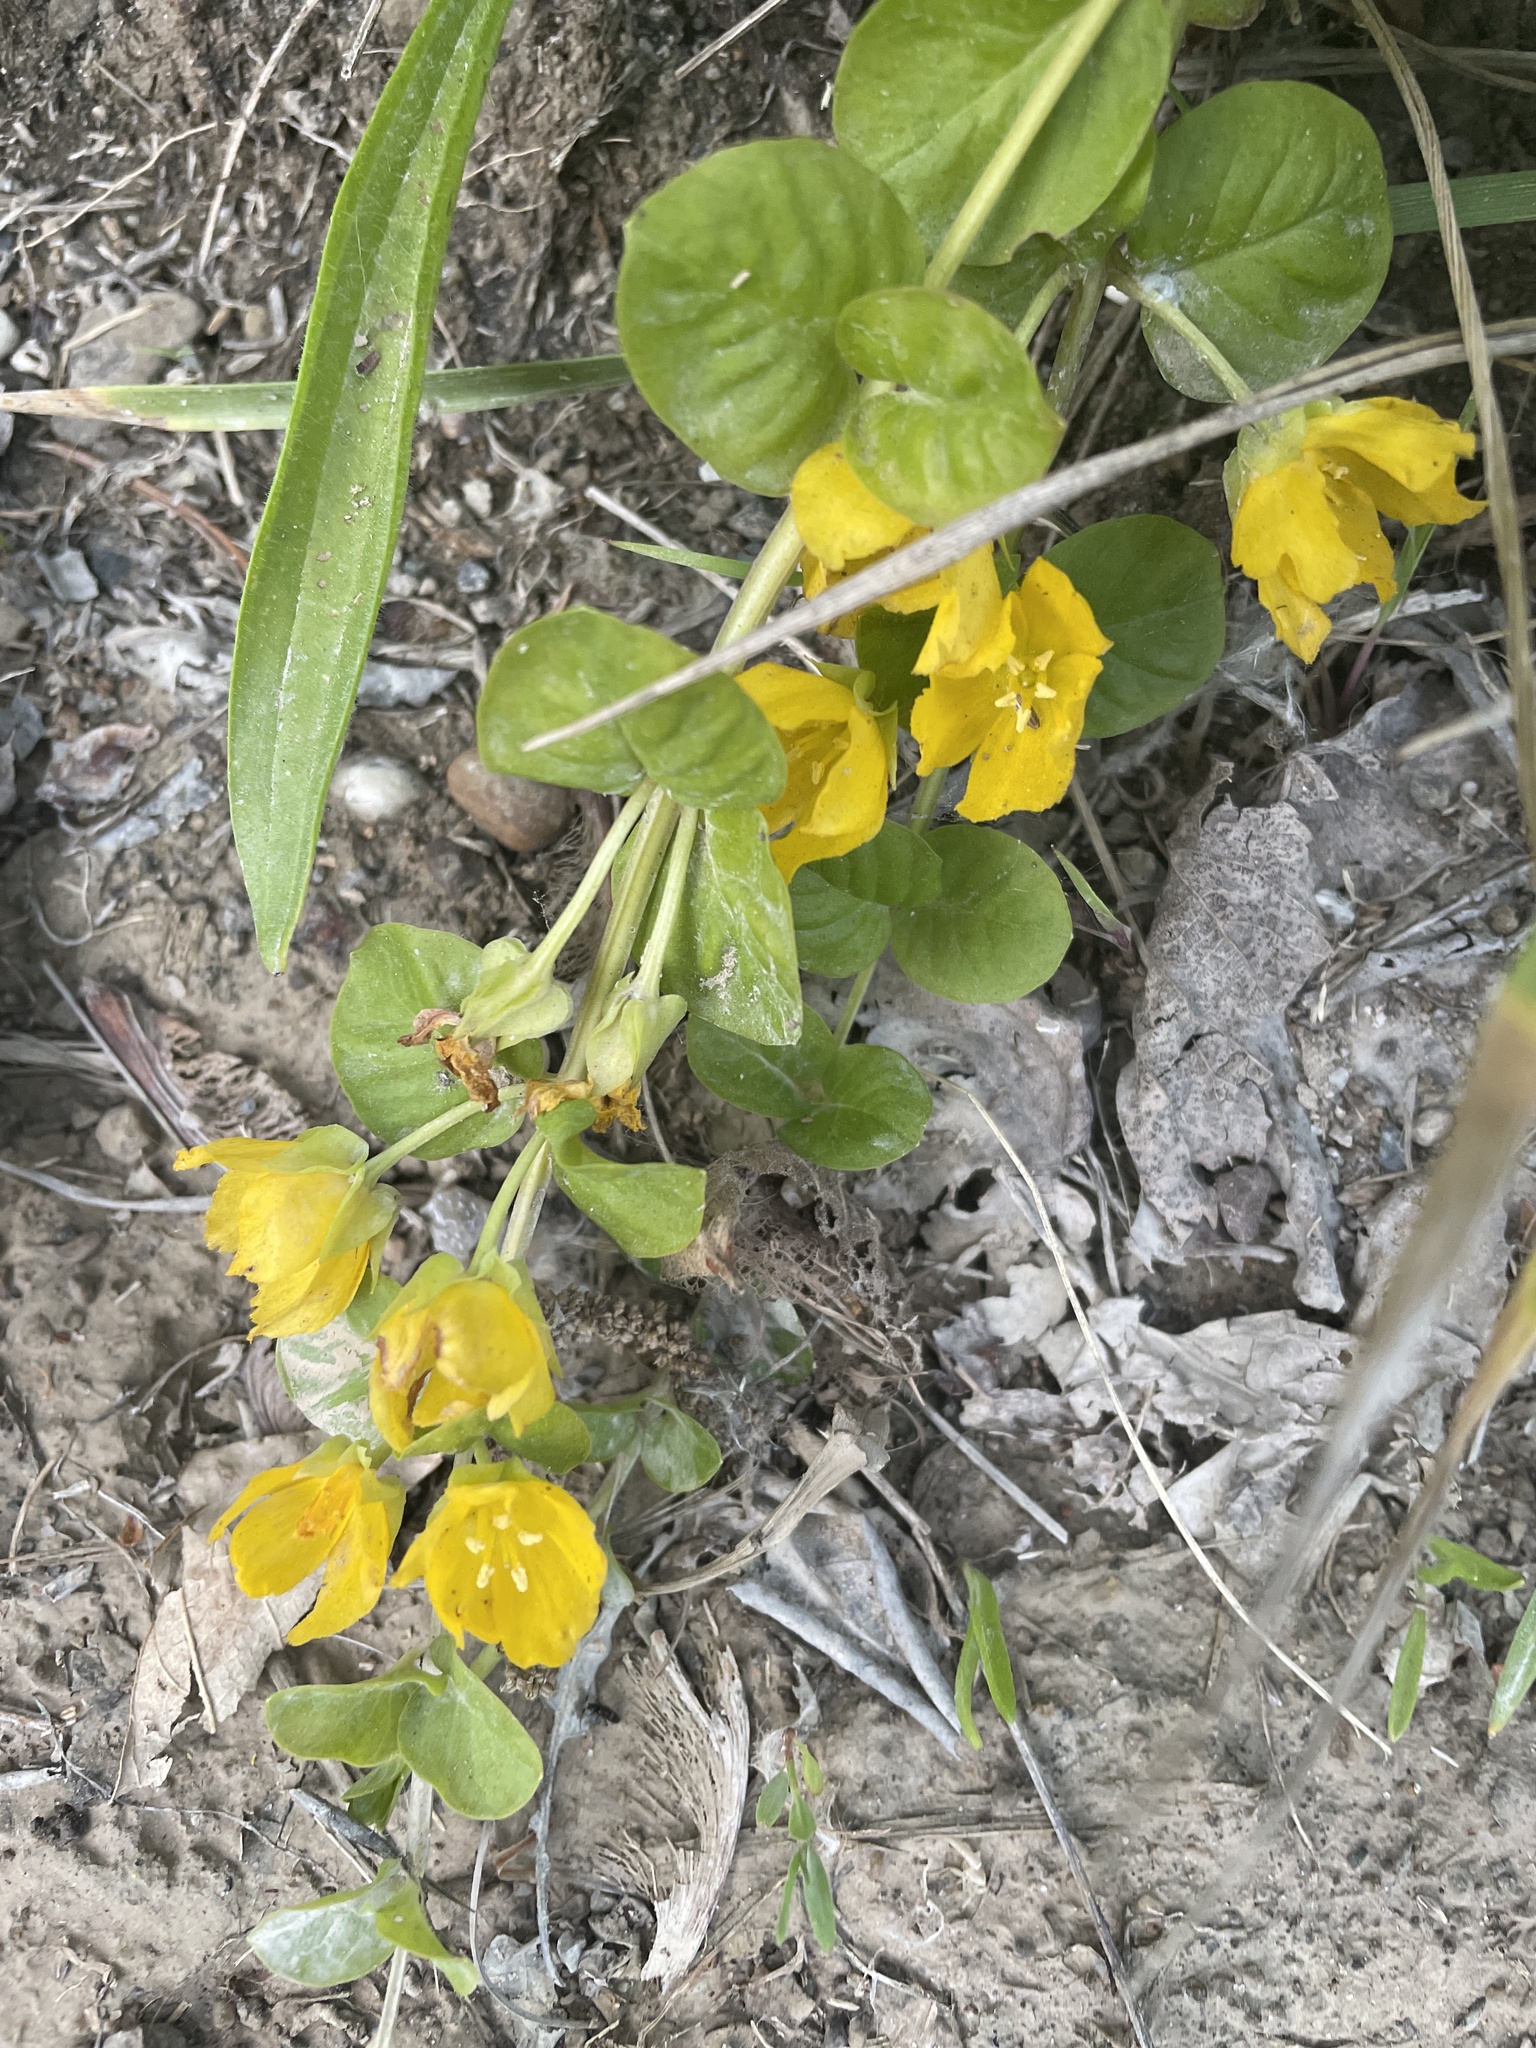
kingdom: Plantae
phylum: Tracheophyta
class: Magnoliopsida
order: Ericales
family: Primulaceae
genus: Lysimachia
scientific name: Lysimachia nummularia
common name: Moneywort
